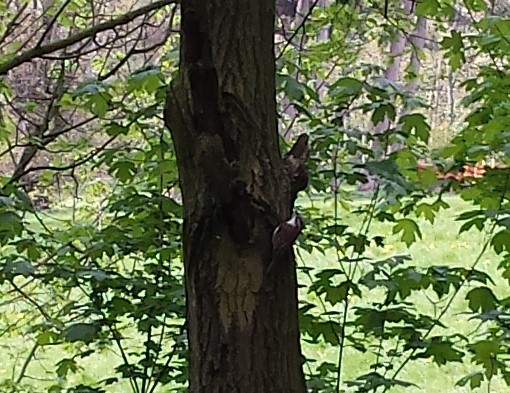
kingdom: Animalia
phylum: Chordata
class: Aves
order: Passeriformes
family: Certhiidae
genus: Certhia
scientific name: Certhia familiaris
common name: Eurasian treecreeper
